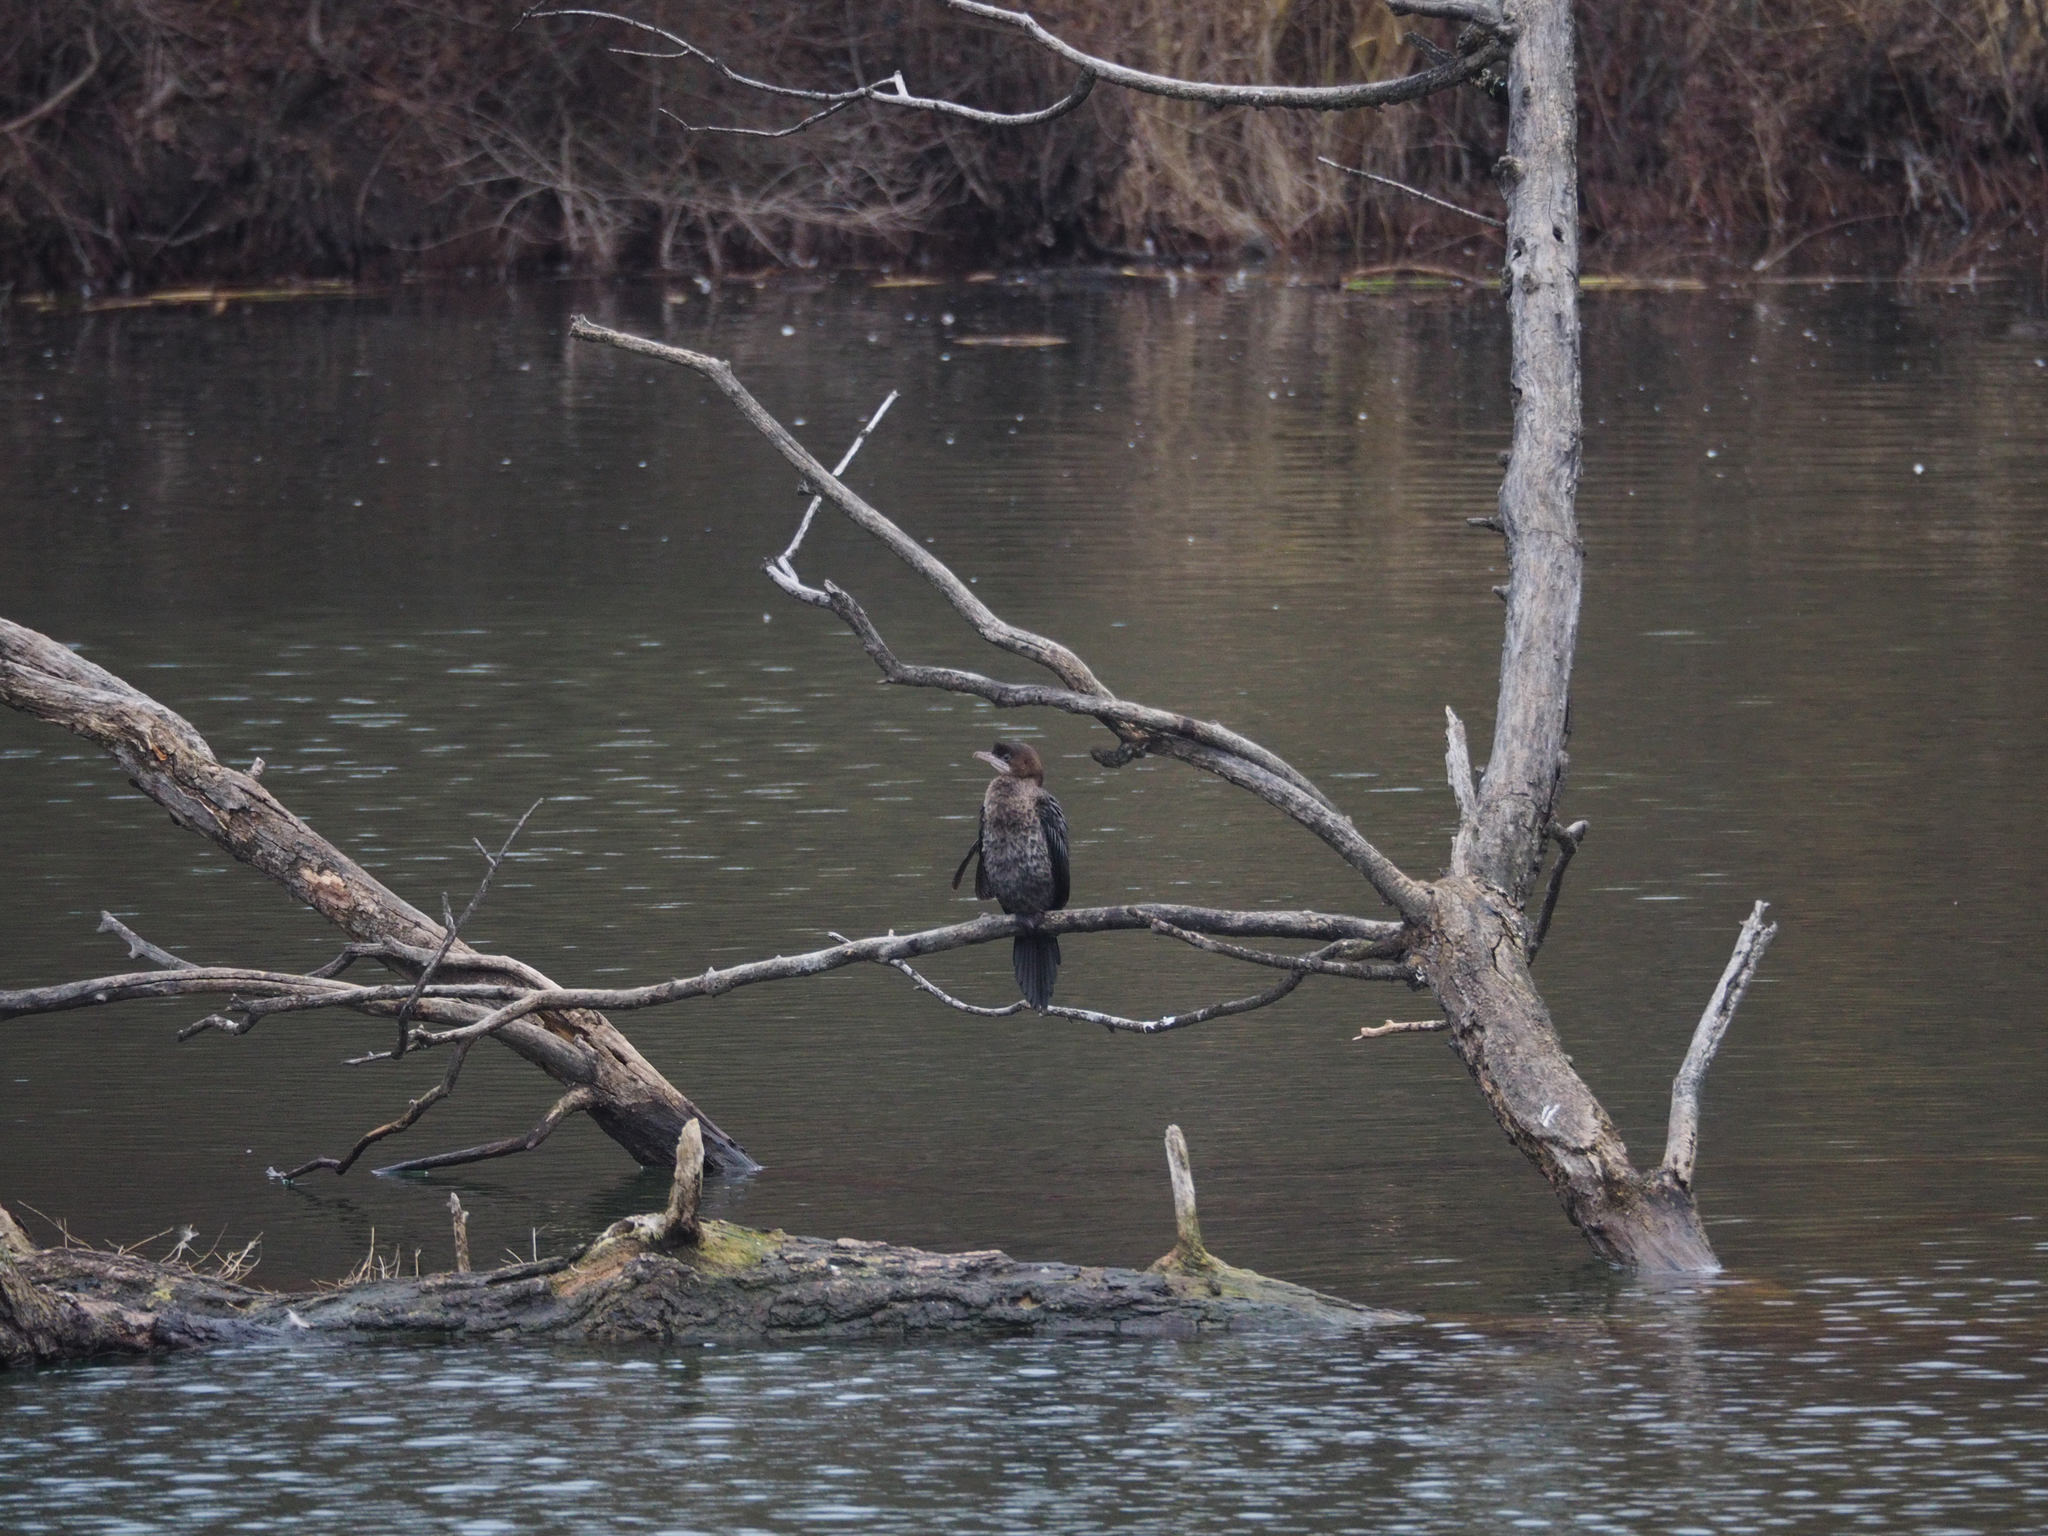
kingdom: Animalia
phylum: Chordata
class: Aves
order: Suliformes
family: Phalacrocoracidae
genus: Microcarbo
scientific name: Microcarbo pygmaeus
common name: Pygmy cormorant
